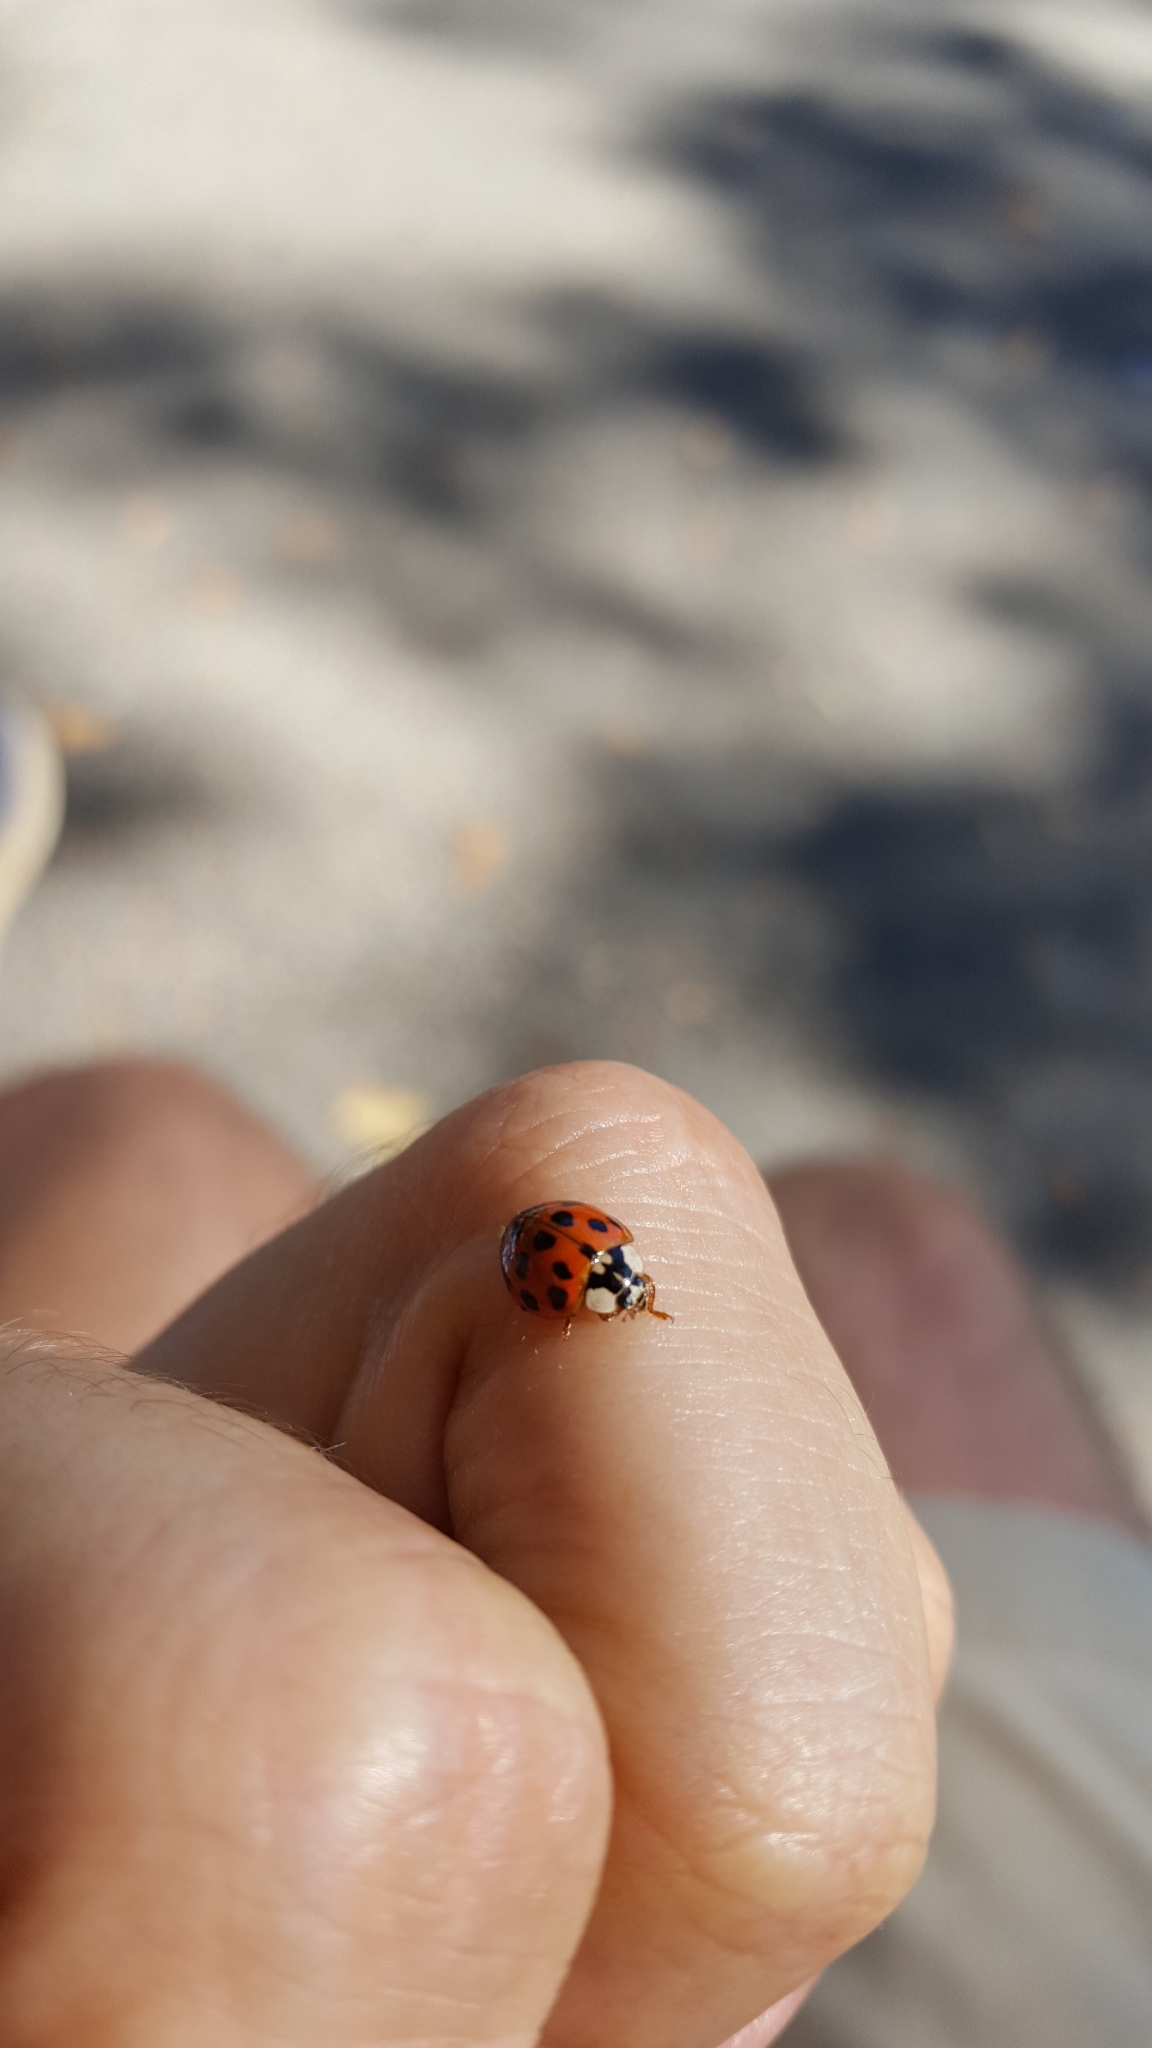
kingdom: Animalia
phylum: Arthropoda
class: Insecta
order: Coleoptera
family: Coccinellidae
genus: Harmonia
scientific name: Harmonia axyridis
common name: Harlequin ladybird
